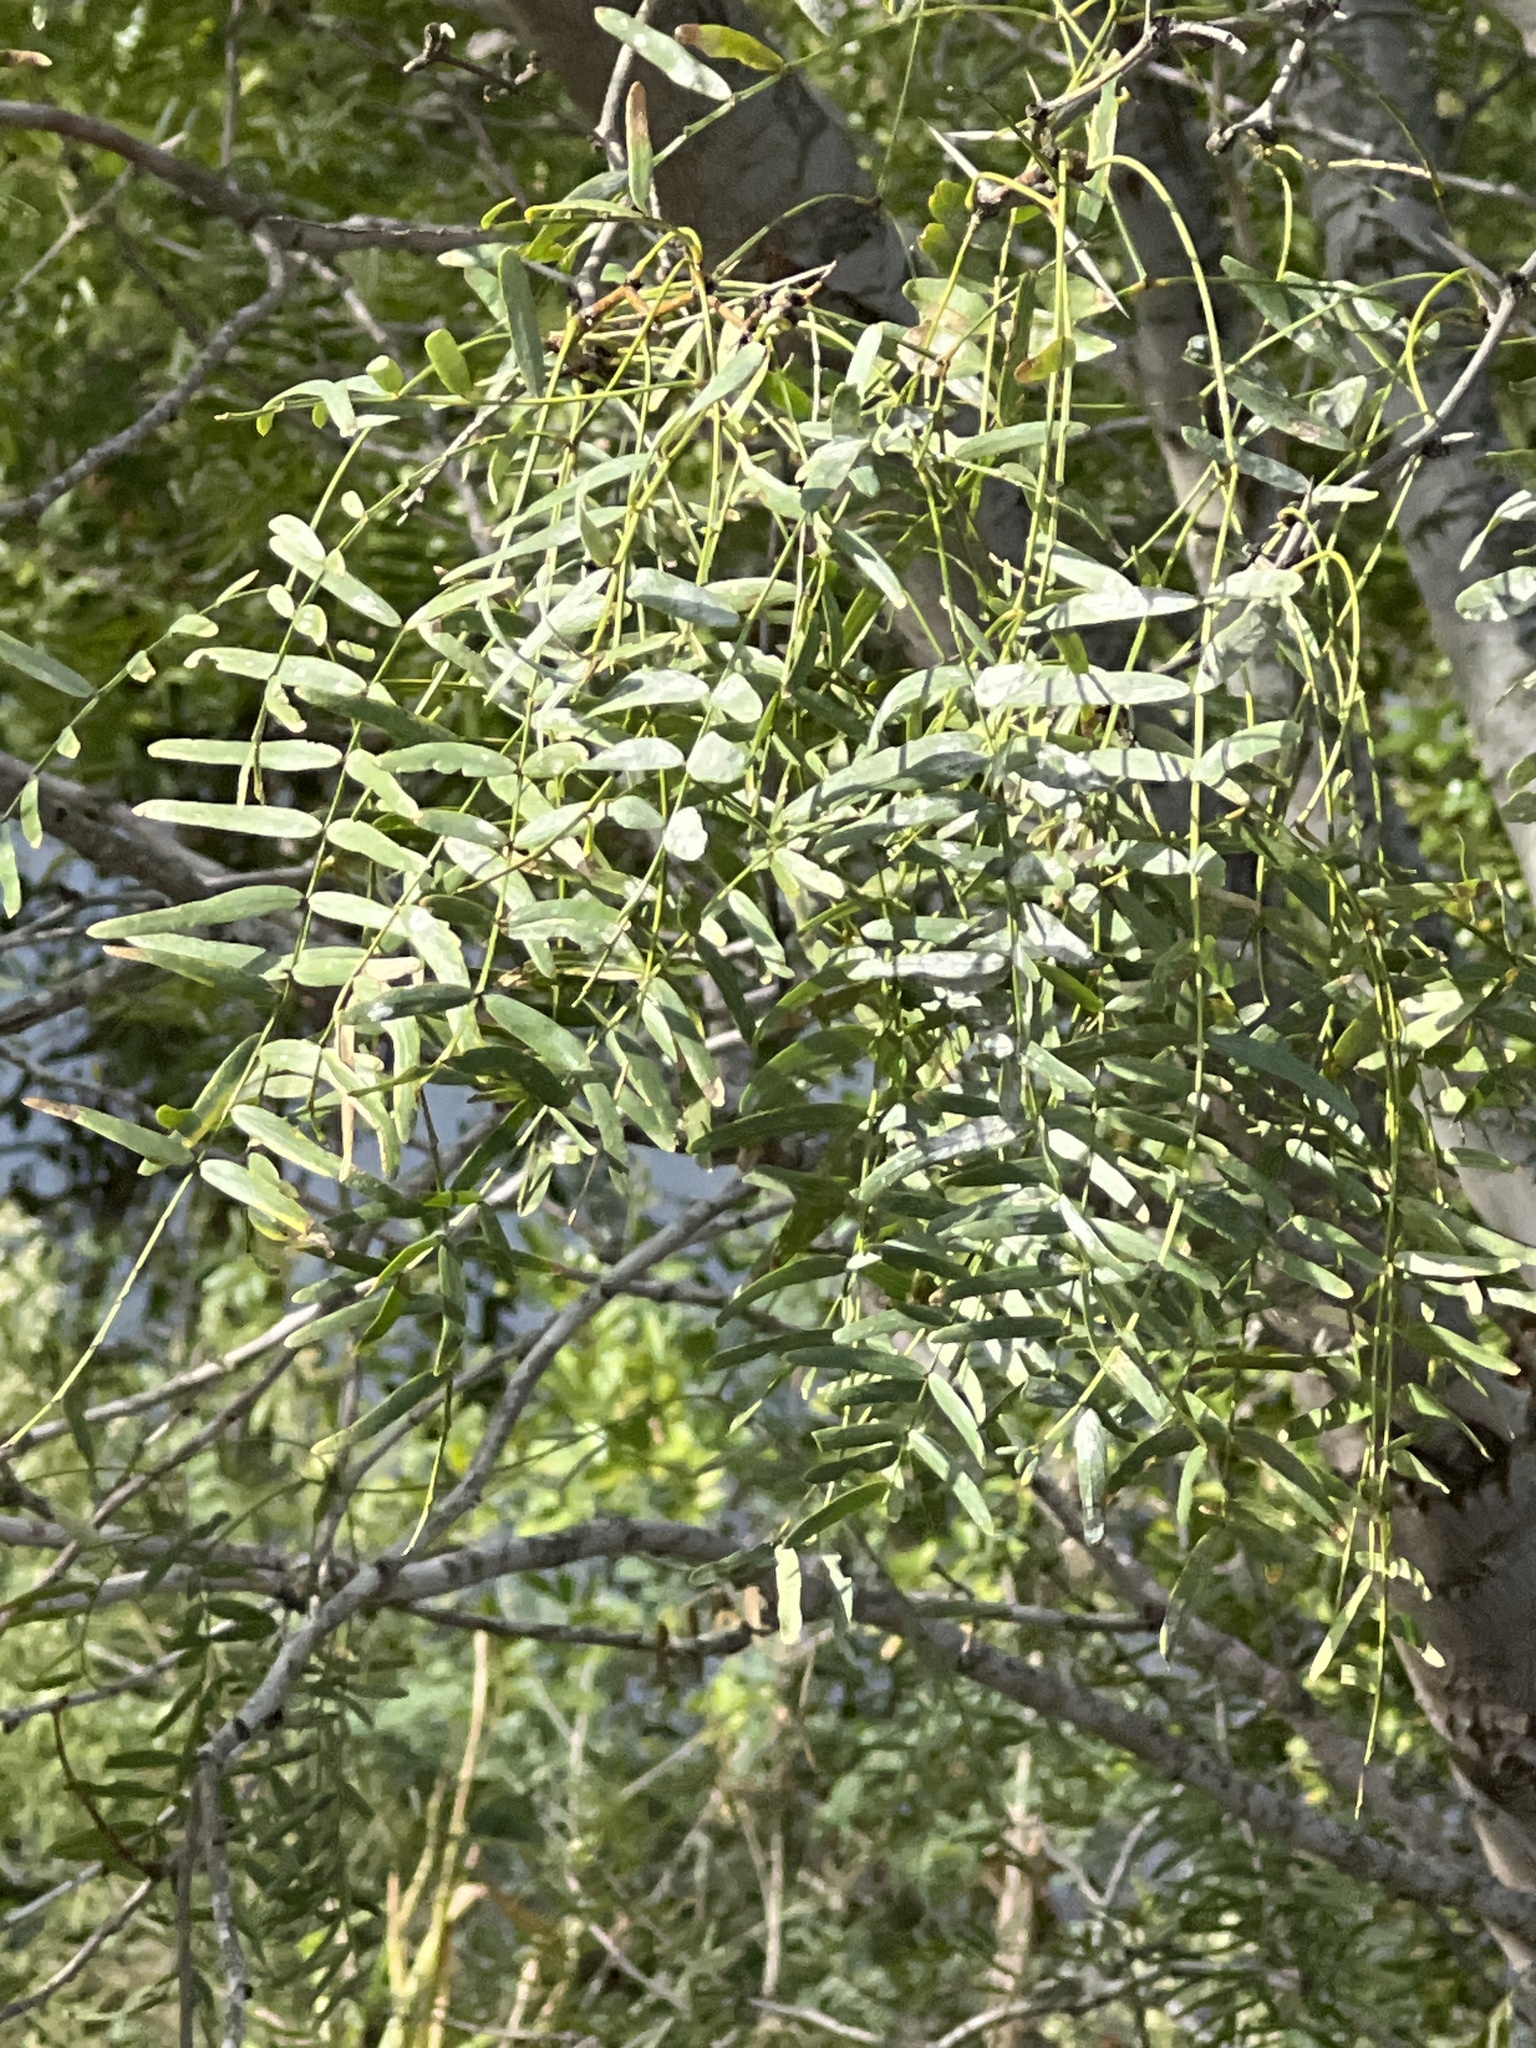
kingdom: Plantae
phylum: Tracheophyta
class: Magnoliopsida
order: Fabales
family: Fabaceae
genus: Prosopis
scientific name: Prosopis glandulosa
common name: Honey mesquite
